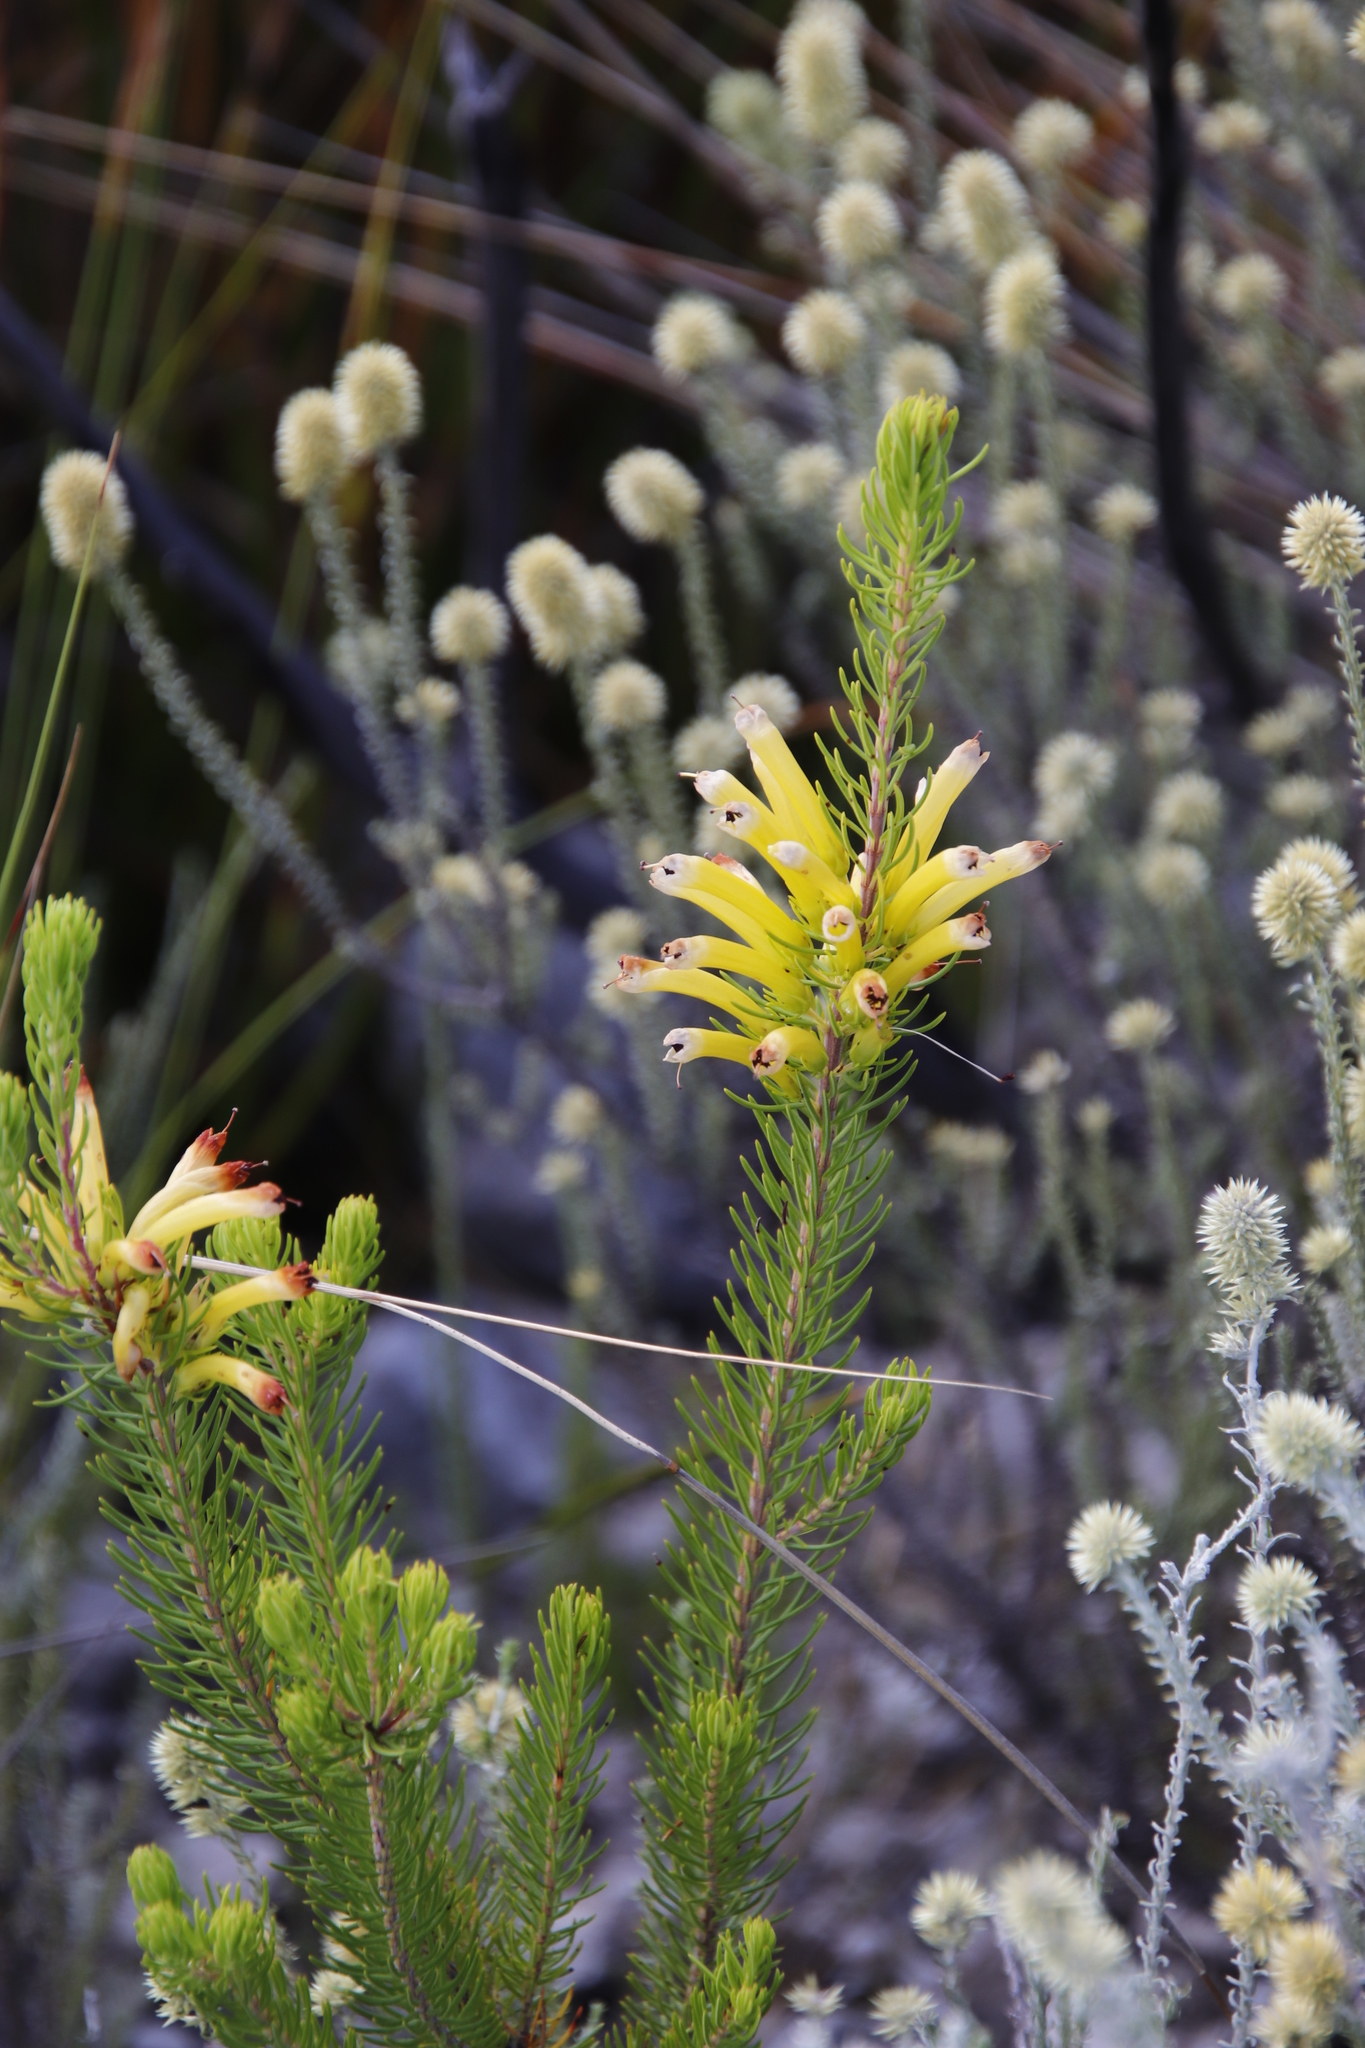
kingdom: Plantae
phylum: Tracheophyta
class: Magnoliopsida
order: Ericales
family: Ericaceae
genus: Erica
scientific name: Erica pinea
